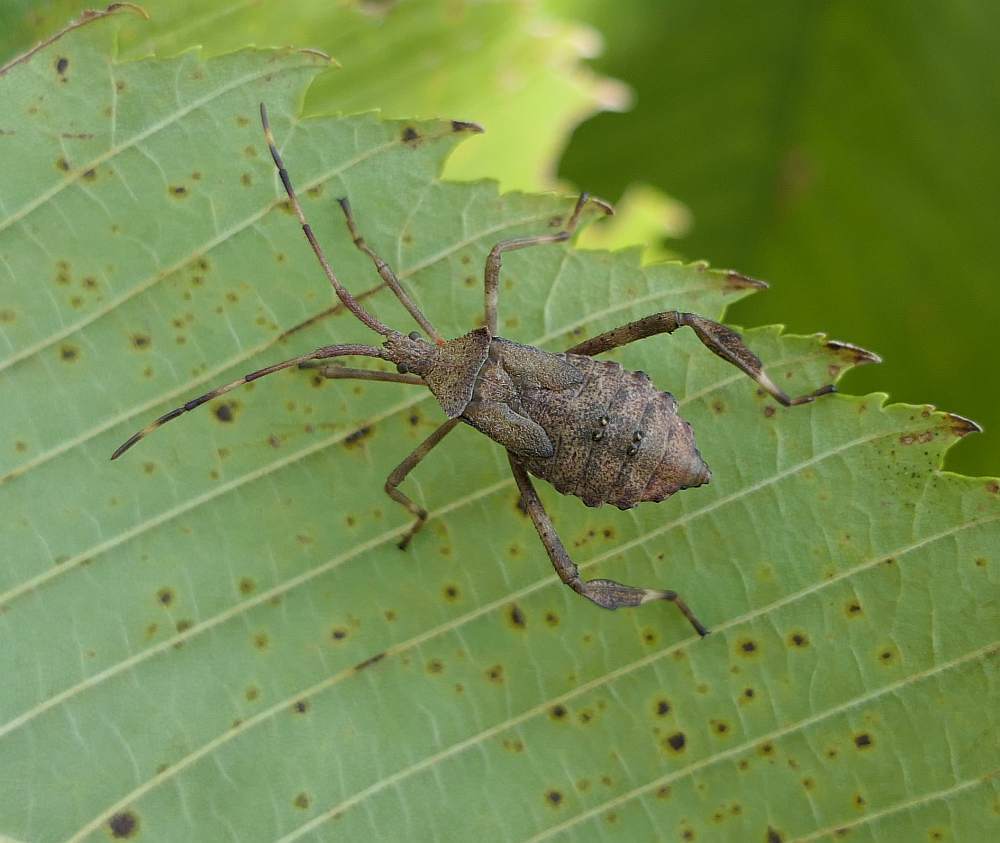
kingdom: Animalia
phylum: Arthropoda
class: Insecta
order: Hemiptera
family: Coreidae
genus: Acanthocephala
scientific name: Acanthocephala terminalis
